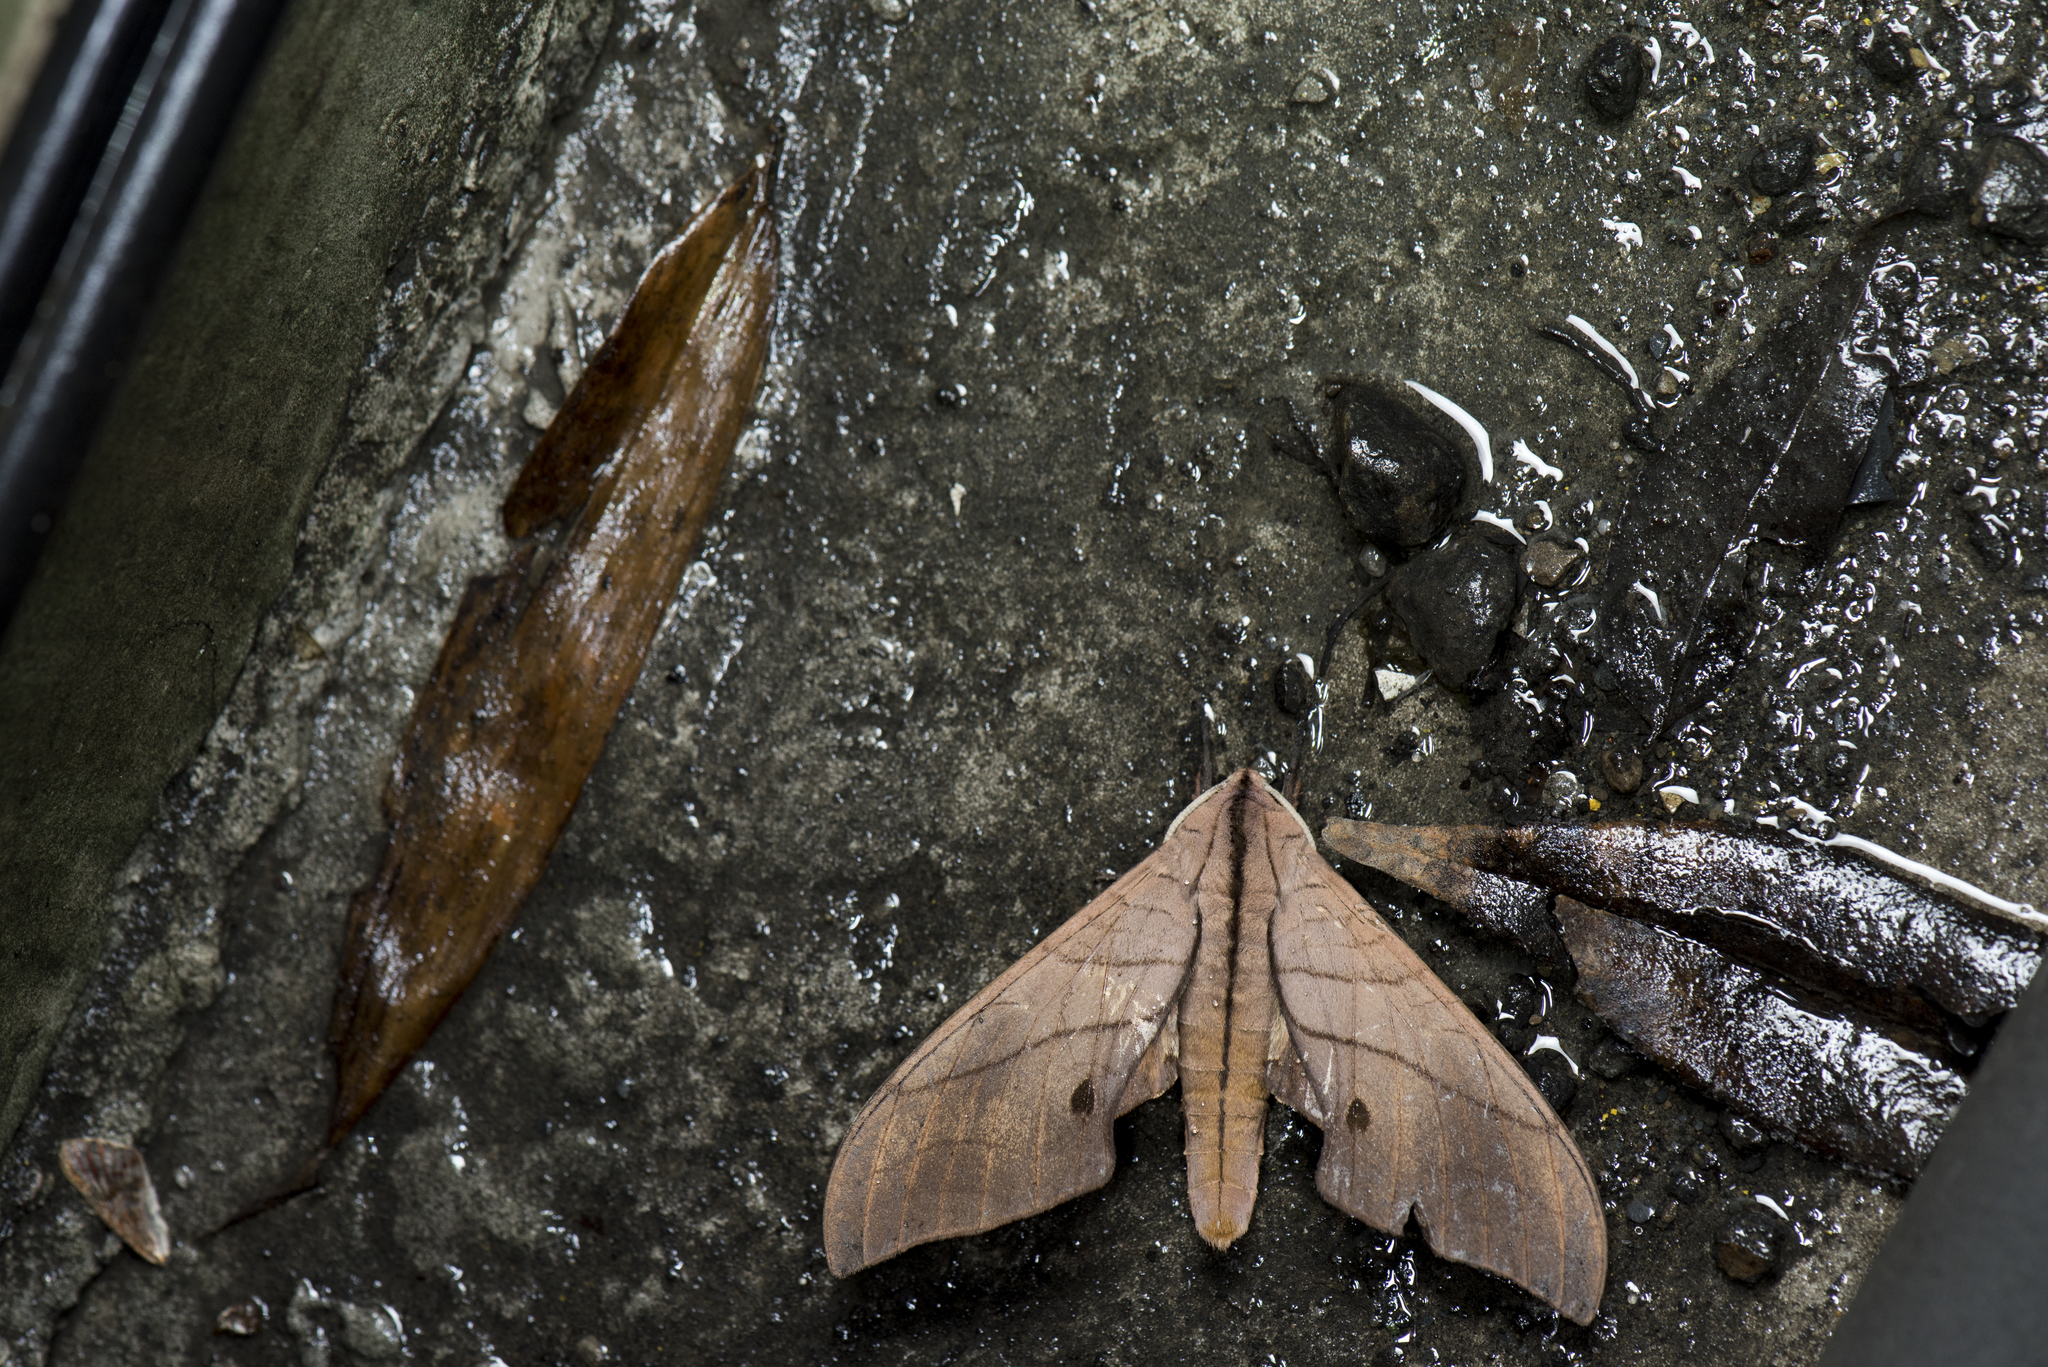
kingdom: Animalia
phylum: Arthropoda
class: Insecta
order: Lepidoptera
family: Sphingidae
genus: Marumba
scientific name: Marumba cristata
